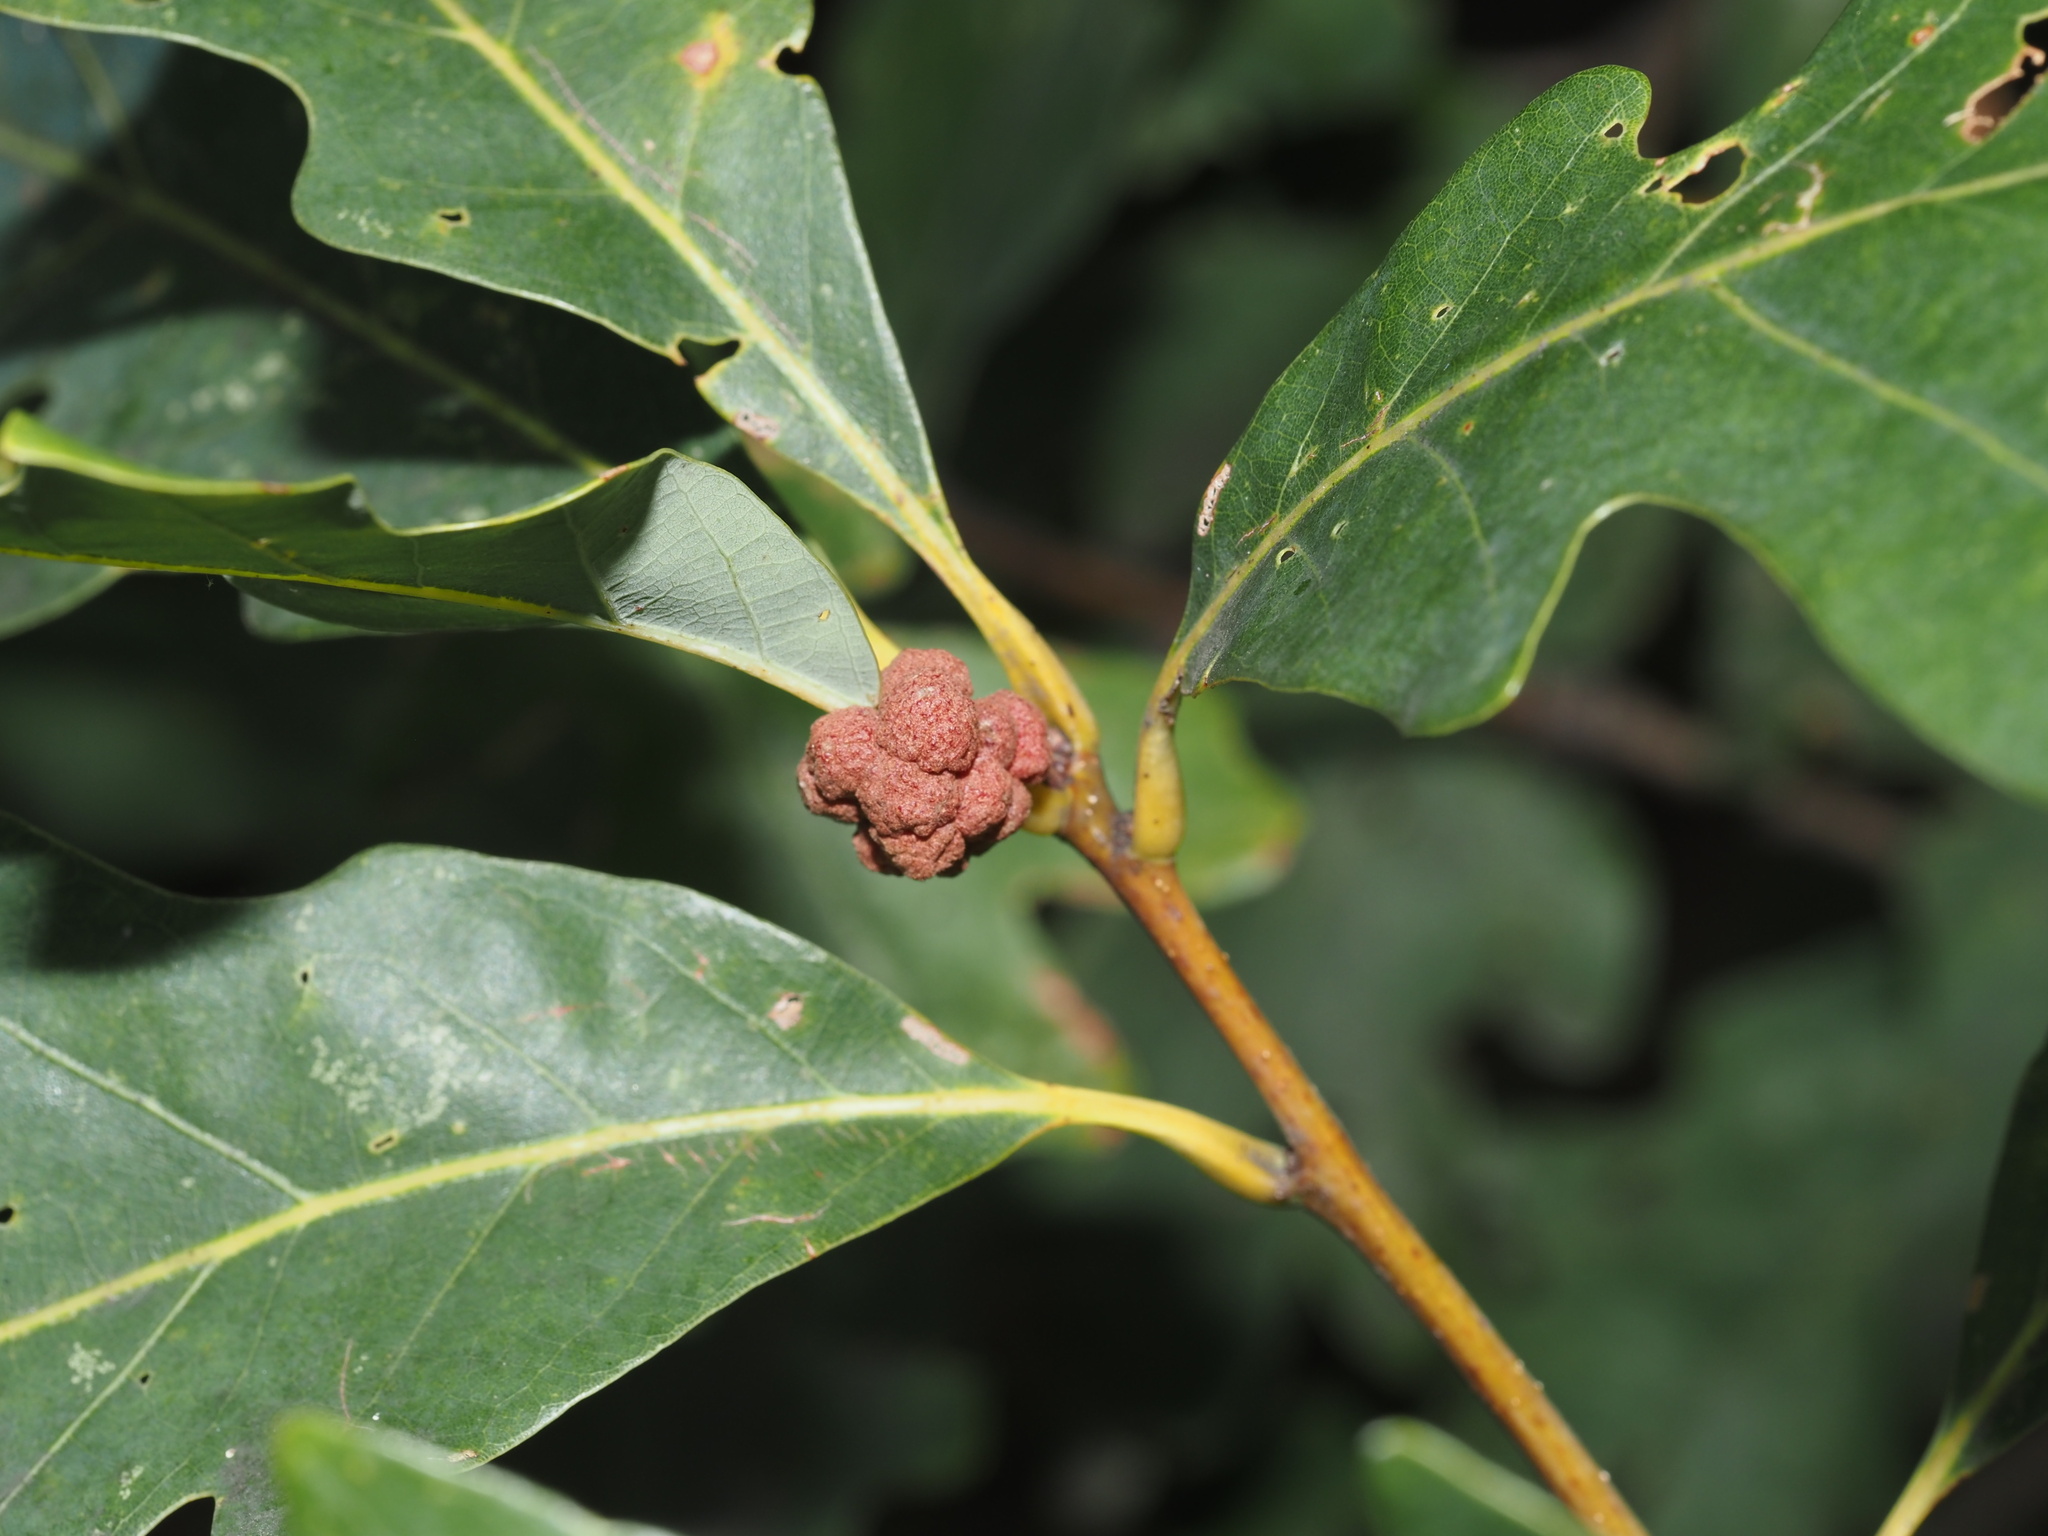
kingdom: Animalia
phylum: Arthropoda
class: Insecta
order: Hymenoptera
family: Cynipidae
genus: Andricus
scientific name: Andricus
